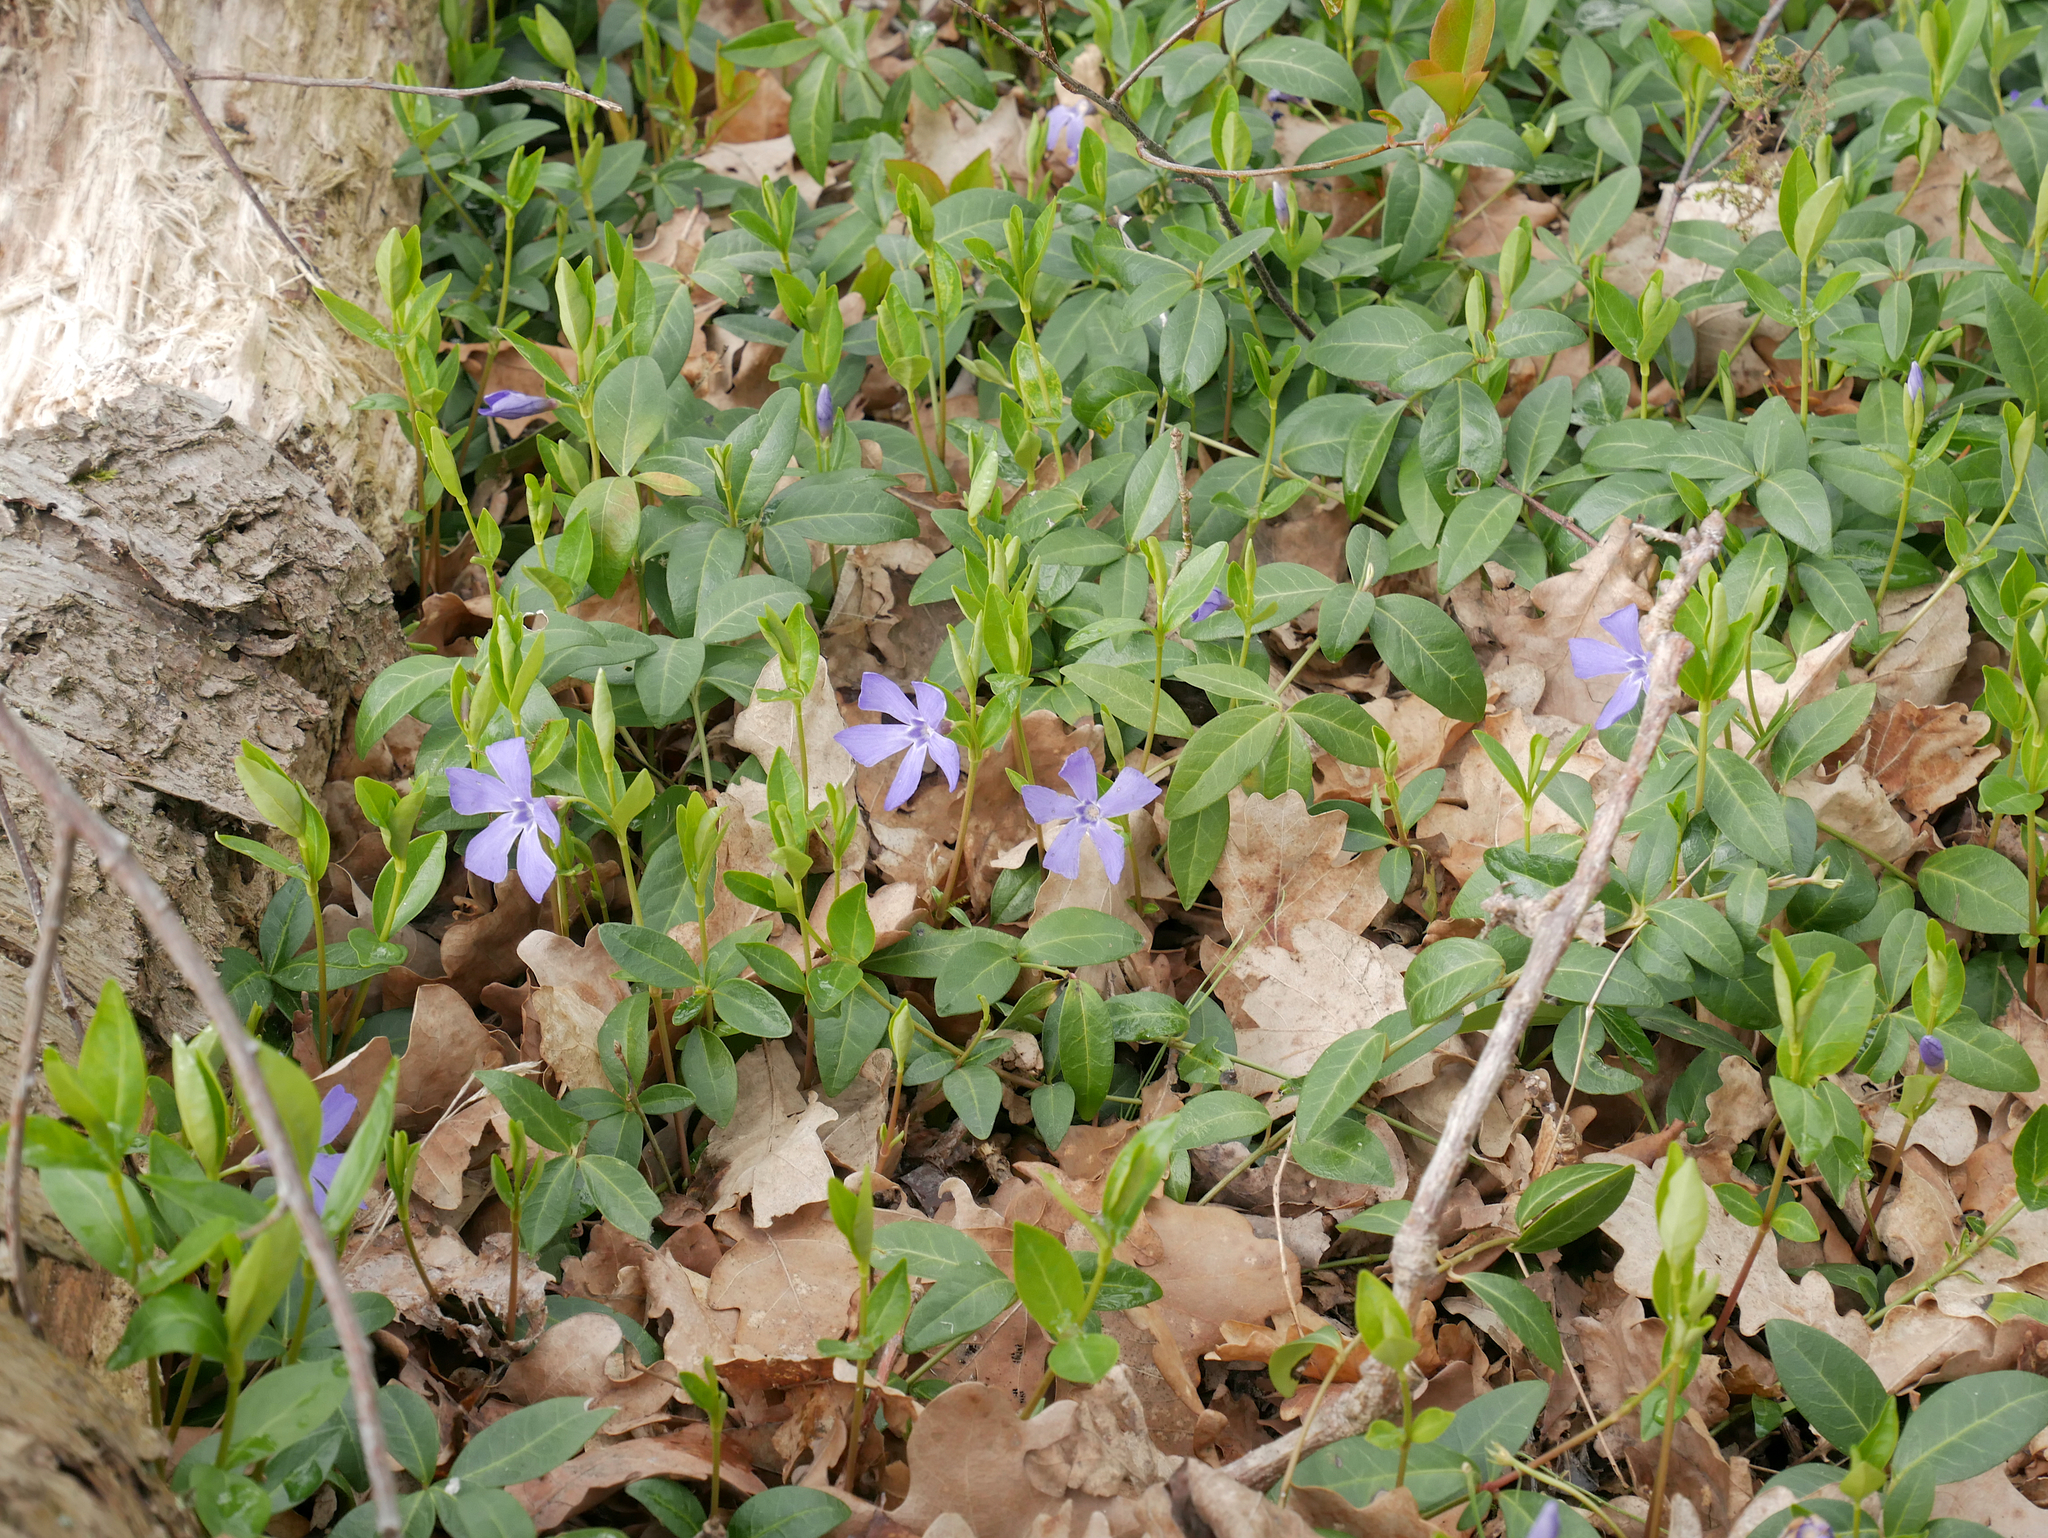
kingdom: Plantae
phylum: Tracheophyta
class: Magnoliopsida
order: Gentianales
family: Apocynaceae
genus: Vinca
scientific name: Vinca minor
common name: Lesser periwinkle
